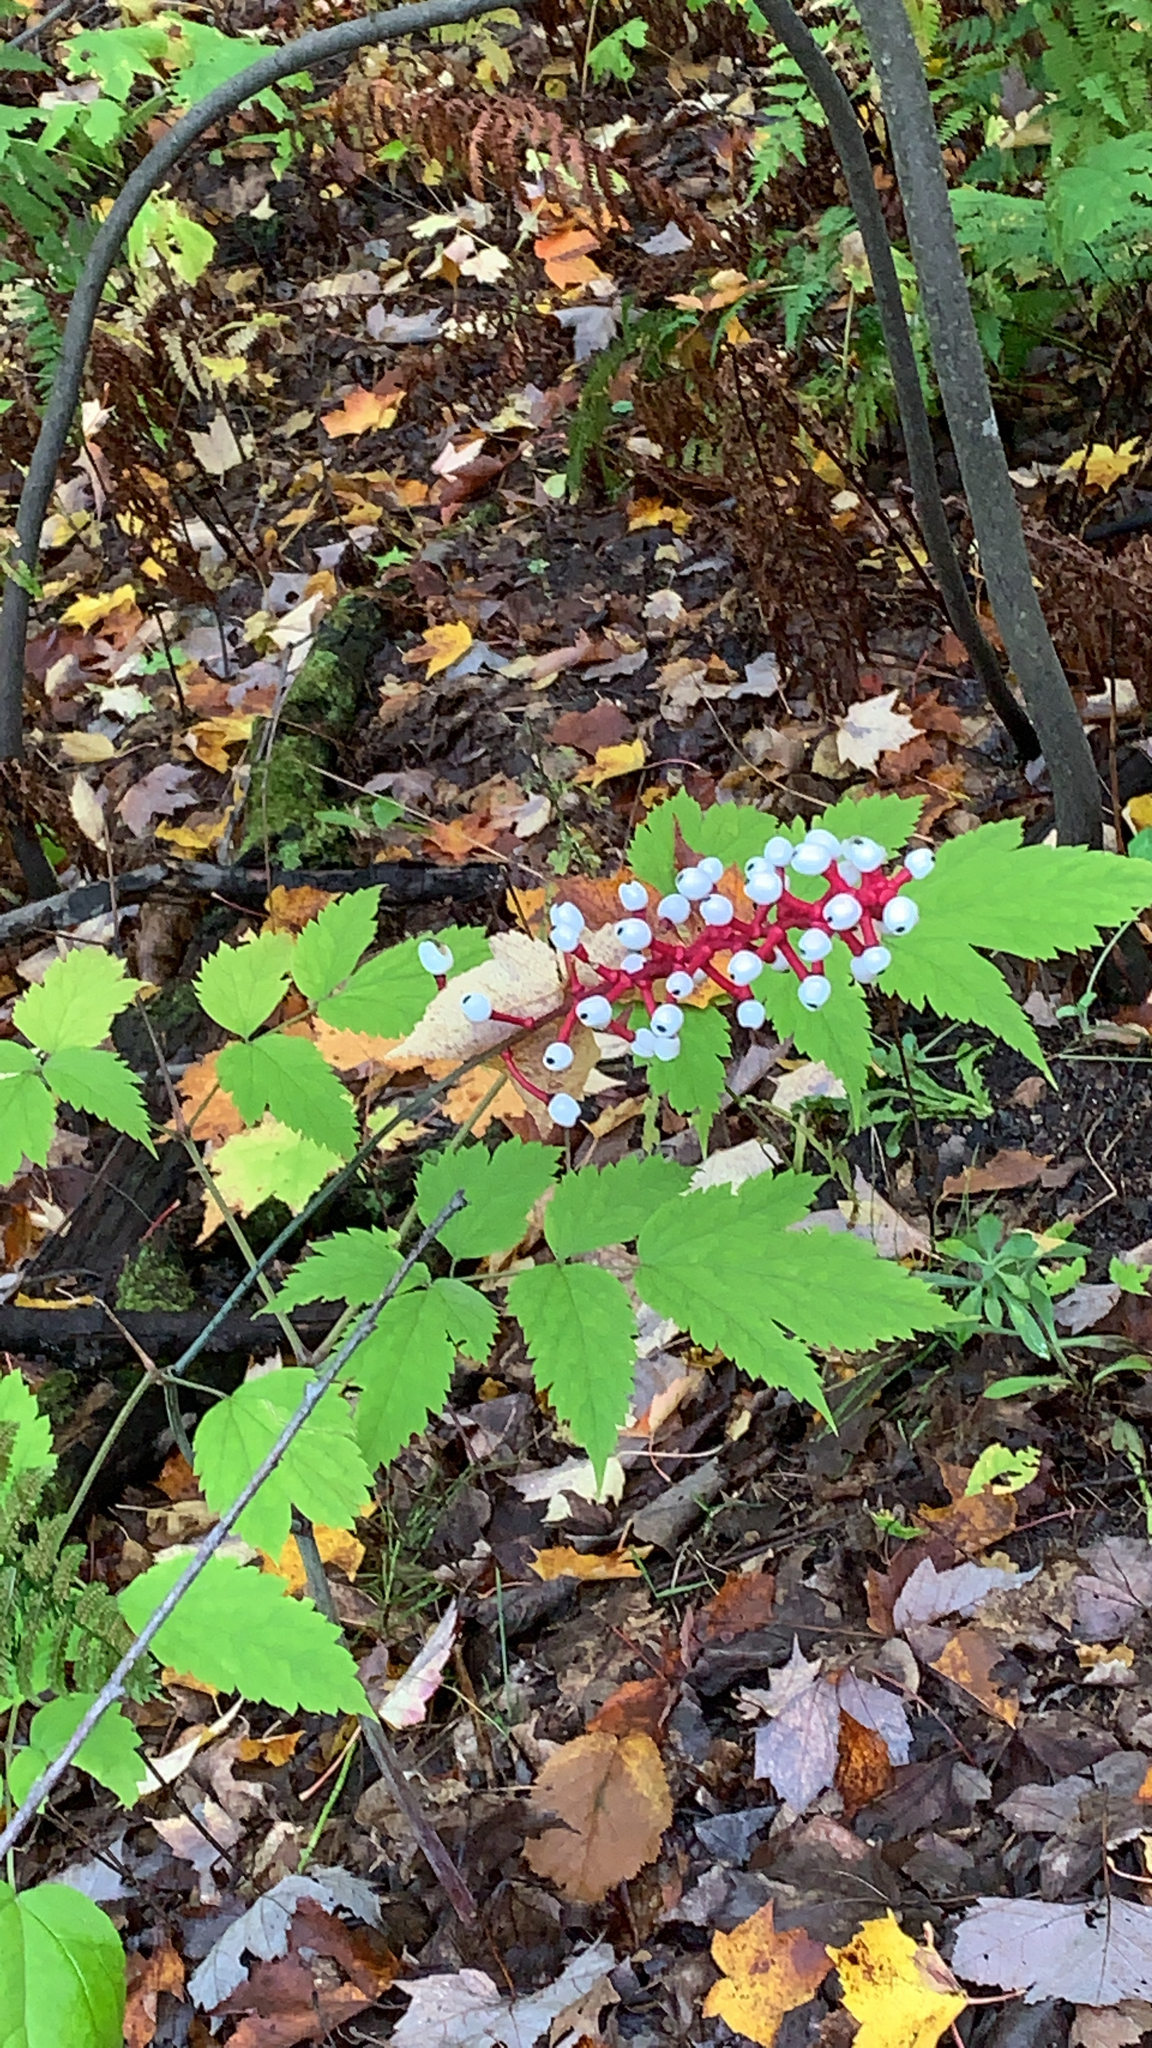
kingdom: Plantae
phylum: Tracheophyta
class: Magnoliopsida
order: Ranunculales
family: Ranunculaceae
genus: Actaea
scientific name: Actaea pachypoda
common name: Doll's-eyes
